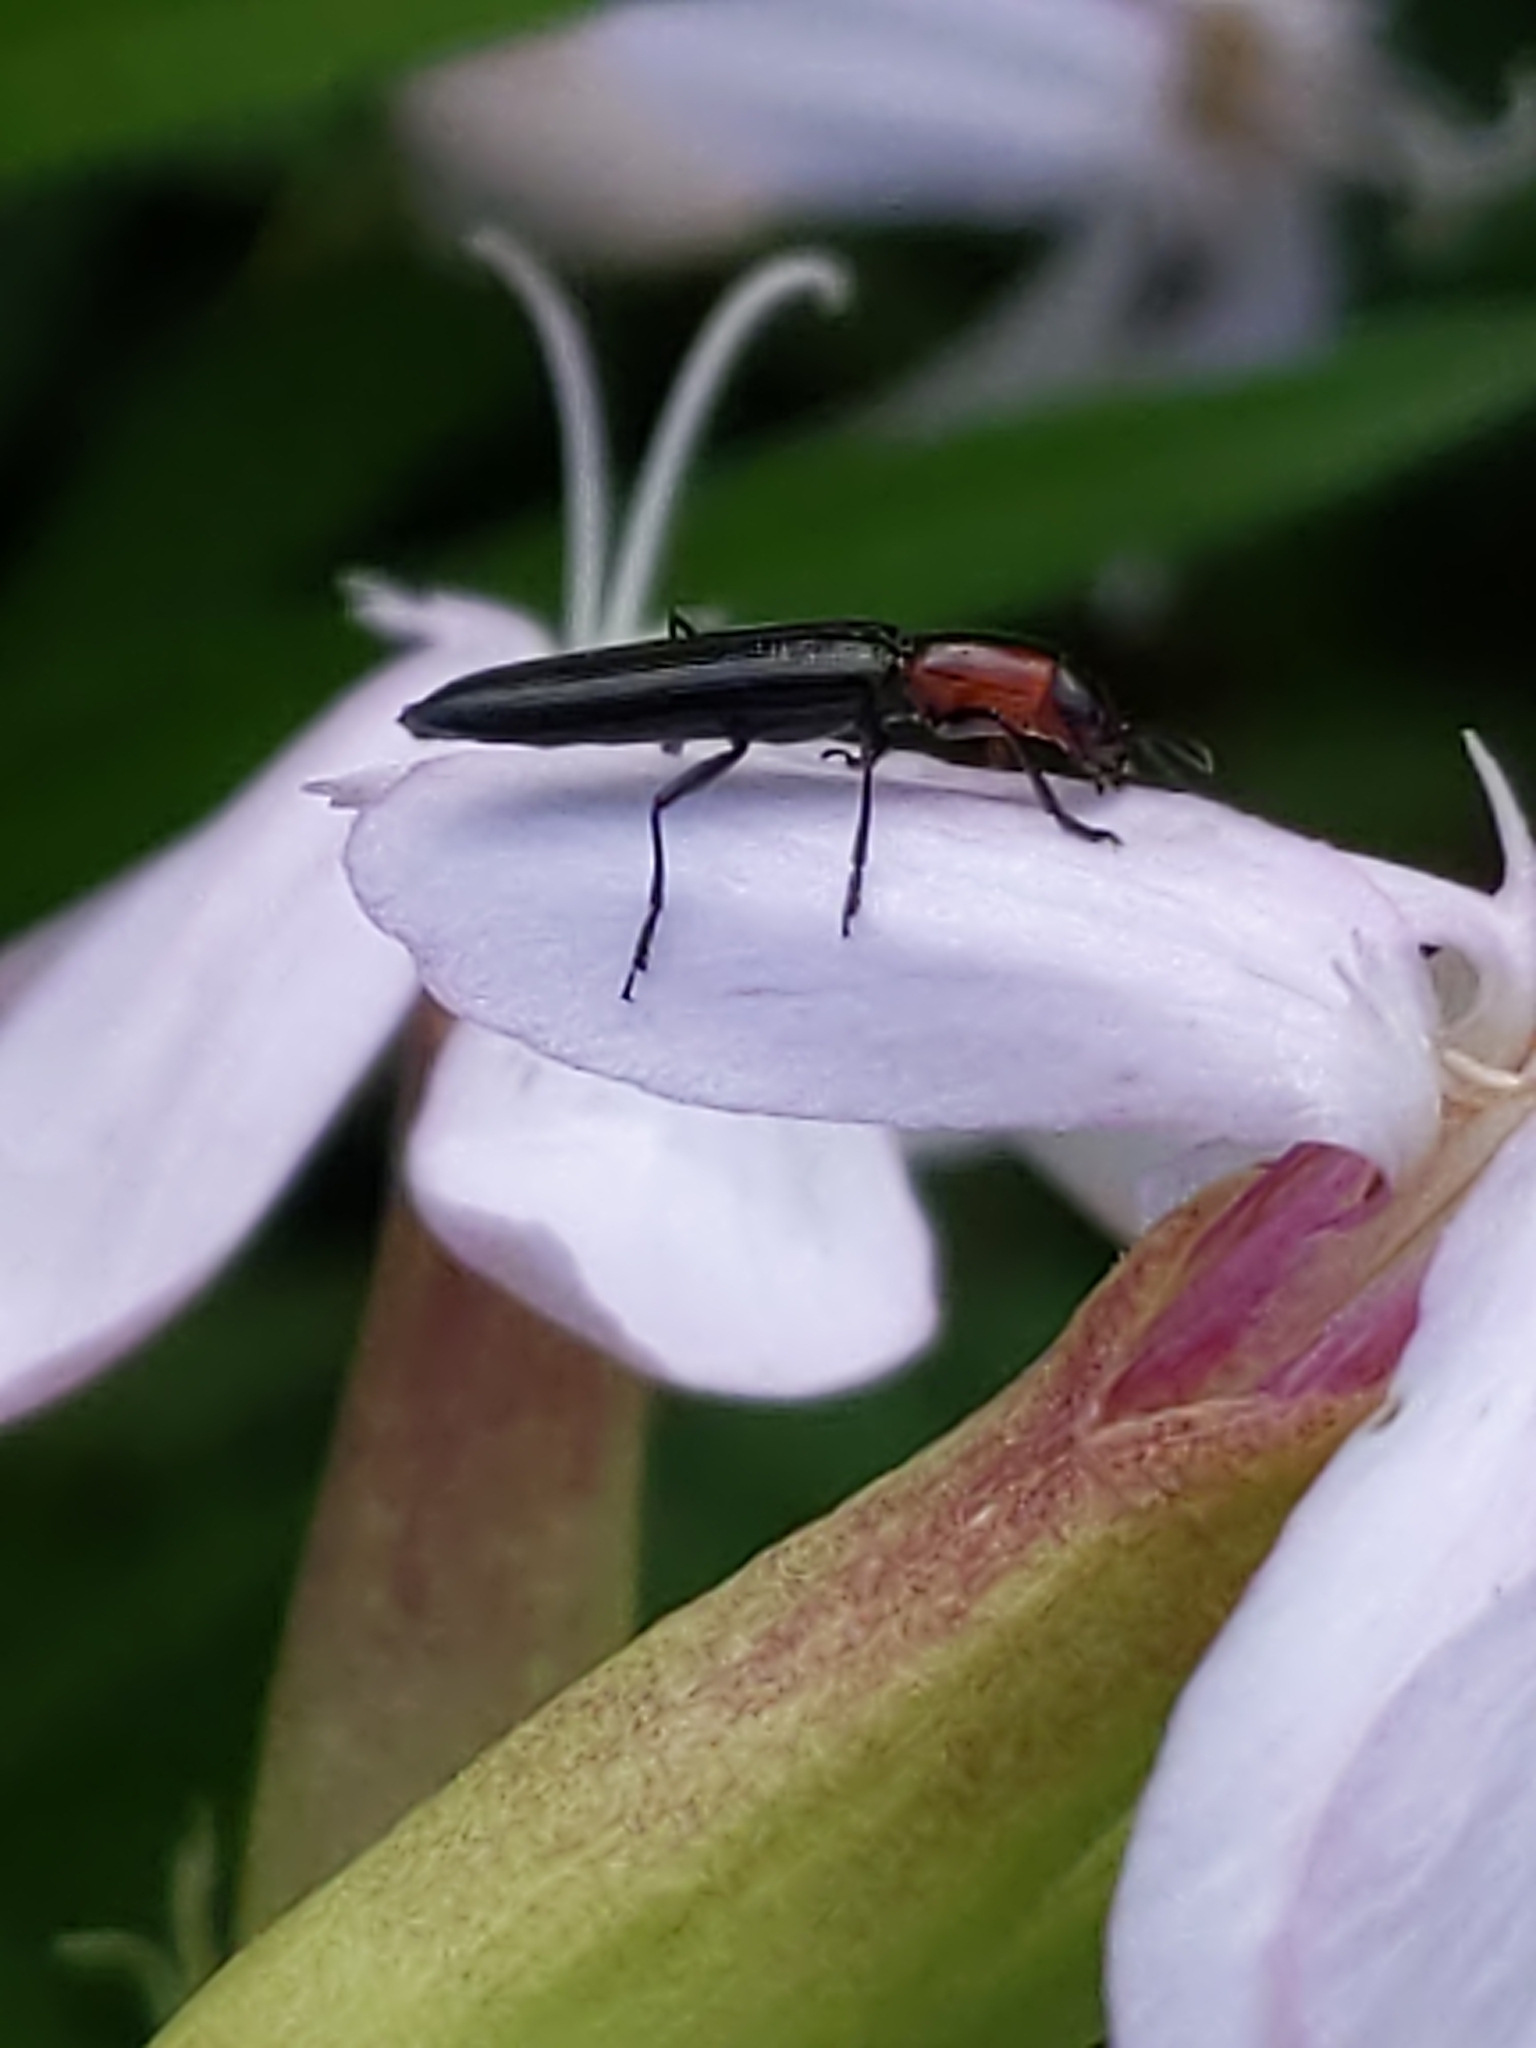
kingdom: Animalia
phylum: Arthropoda
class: Insecta
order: Coleoptera
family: Erotylidae
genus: Acropteroxys
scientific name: Acropteroxys gracilis
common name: Slender lizard beetle
